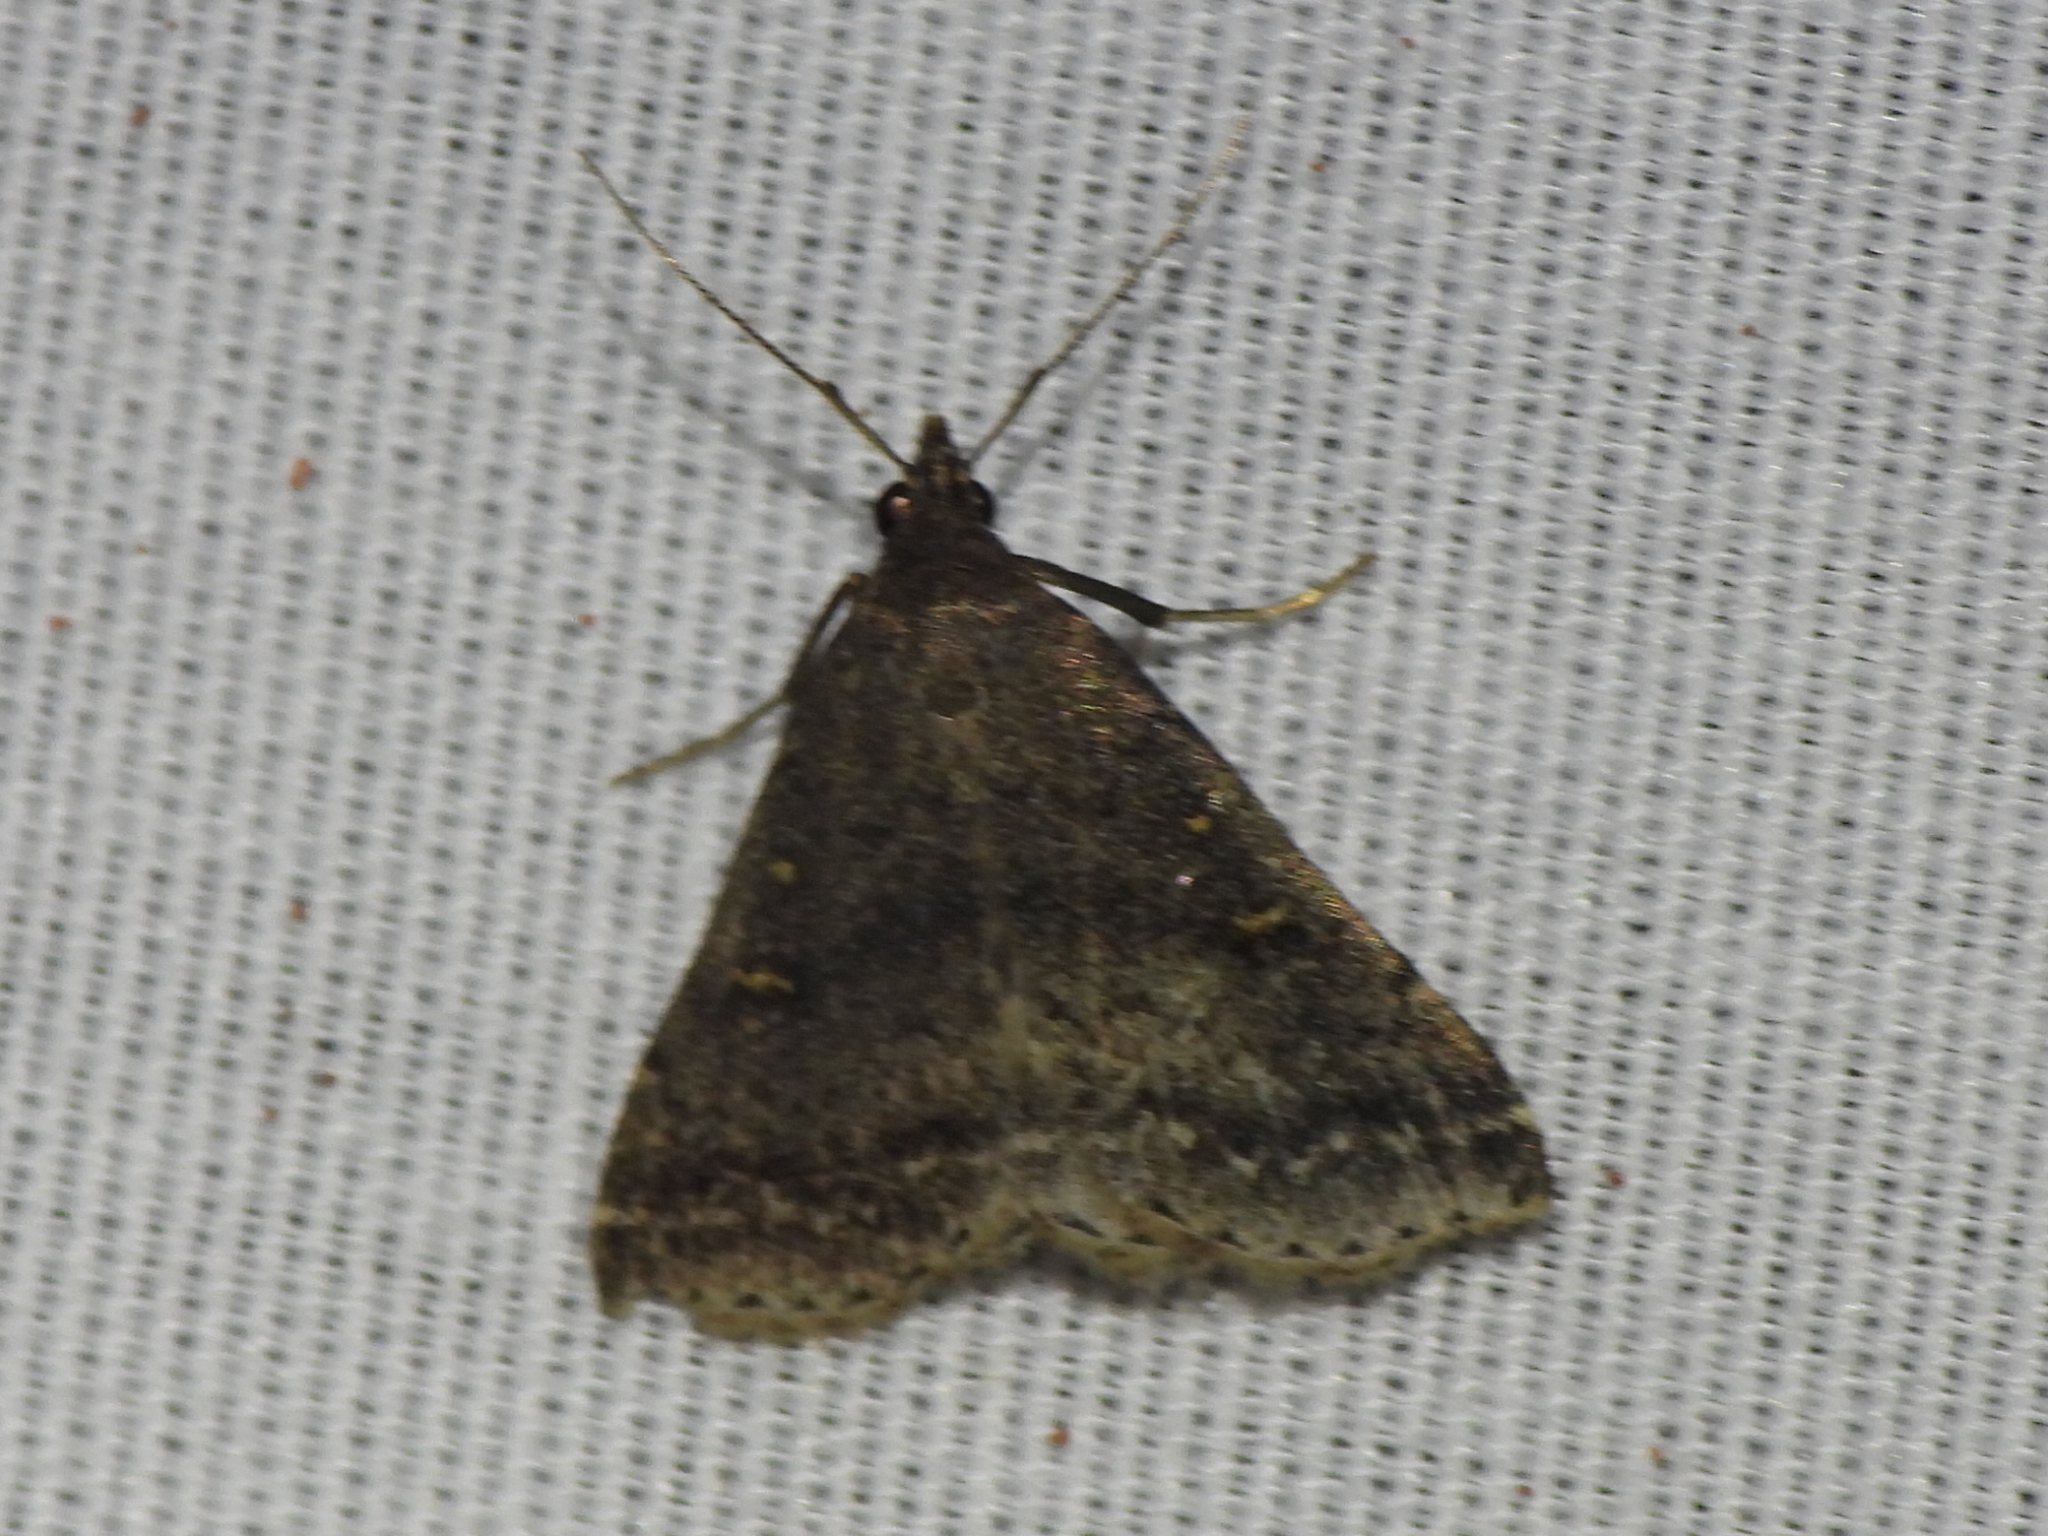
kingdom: Animalia
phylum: Arthropoda
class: Insecta
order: Lepidoptera
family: Erebidae
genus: Tetanolita
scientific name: Tetanolita mynesalis
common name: Smoky tetanolita moth
